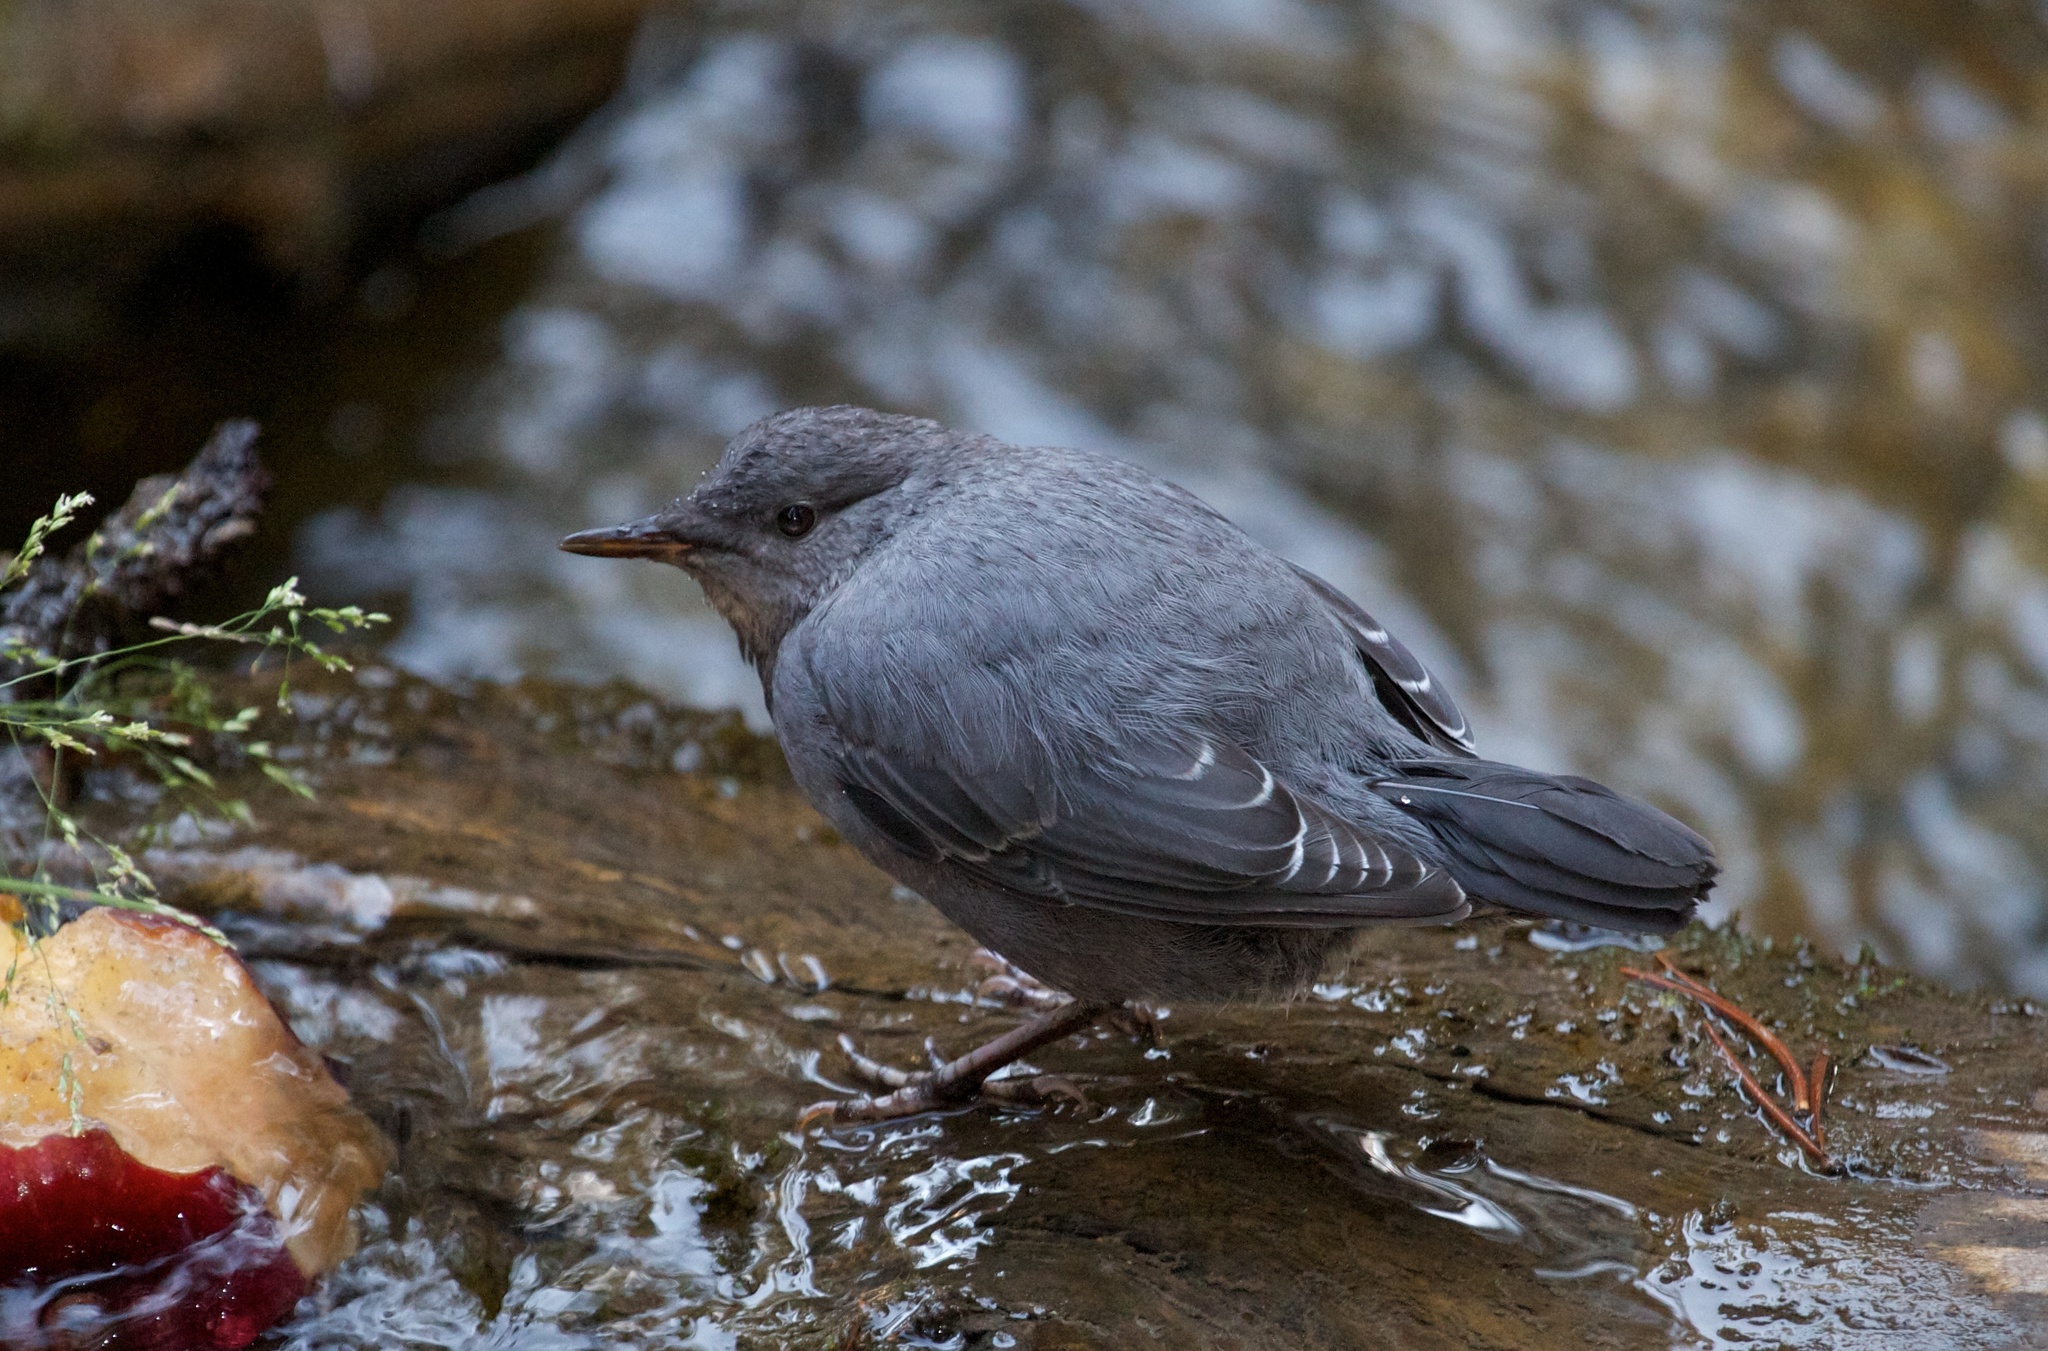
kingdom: Animalia
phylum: Chordata
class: Aves
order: Passeriformes
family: Cinclidae
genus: Cinclus
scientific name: Cinclus mexicanus
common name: American dipper
